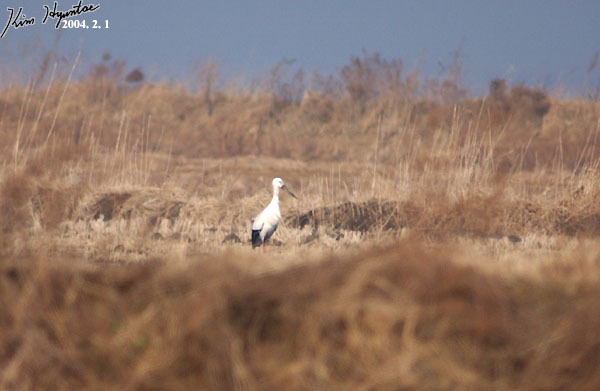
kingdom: Animalia
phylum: Chordata
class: Aves
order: Ciconiiformes
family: Ciconiidae
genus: Ciconia
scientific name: Ciconia boyciana
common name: Oriental stork
